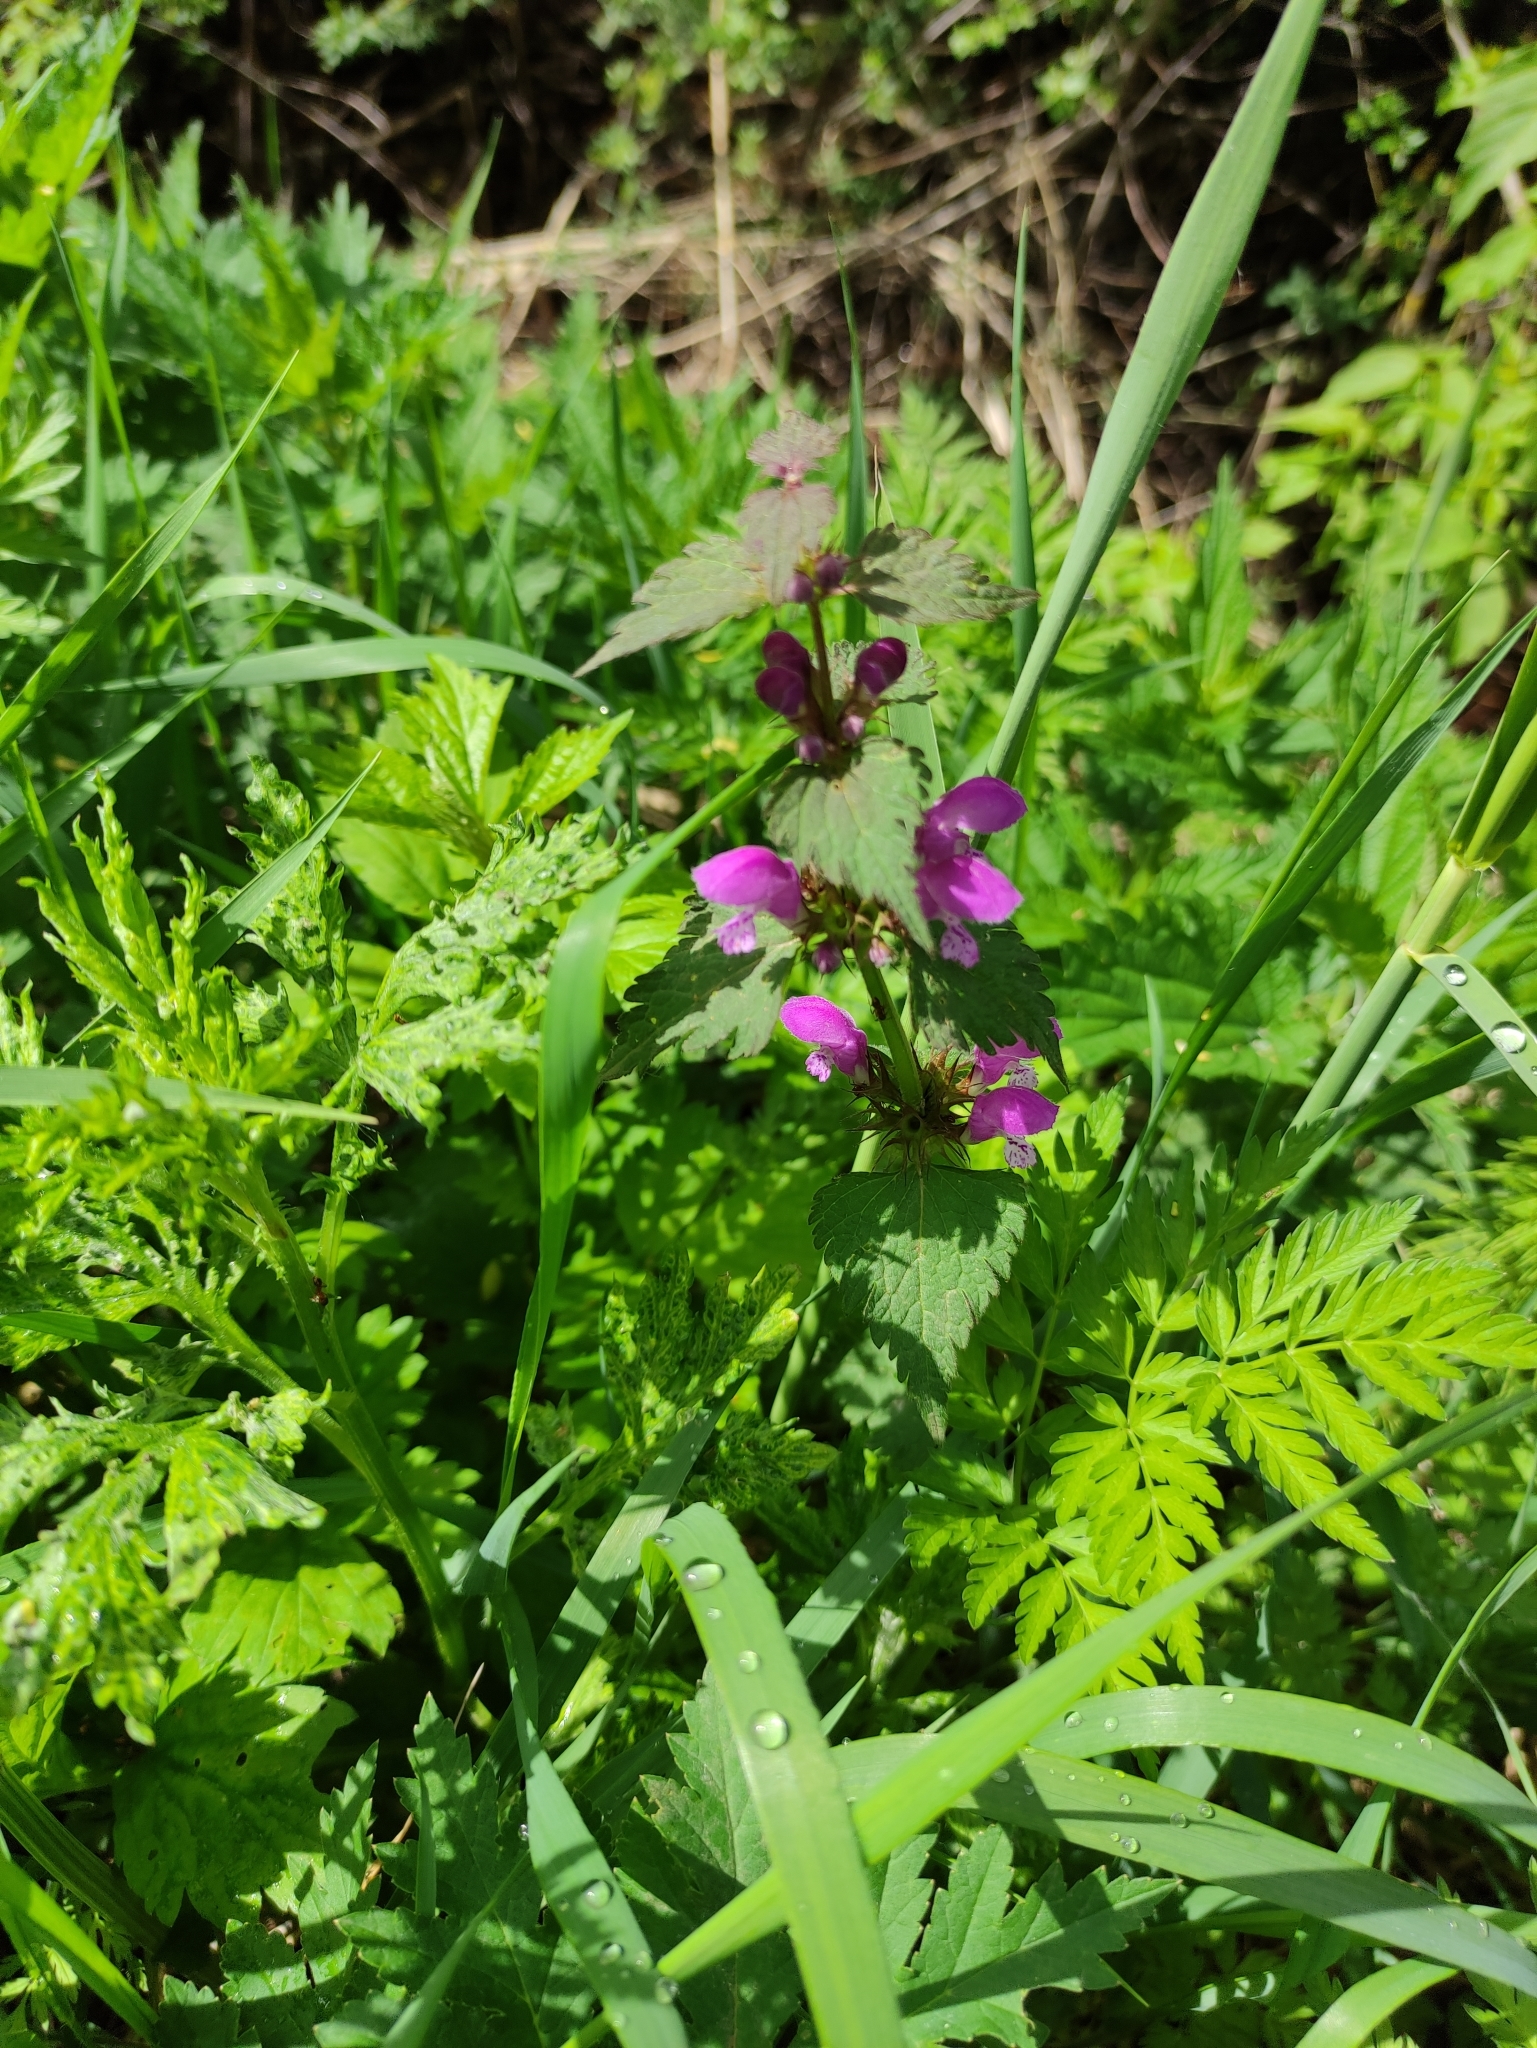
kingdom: Plantae
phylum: Tracheophyta
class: Magnoliopsida
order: Lamiales
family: Lamiaceae
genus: Lamium
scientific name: Lamium maculatum
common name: Spotted dead-nettle
